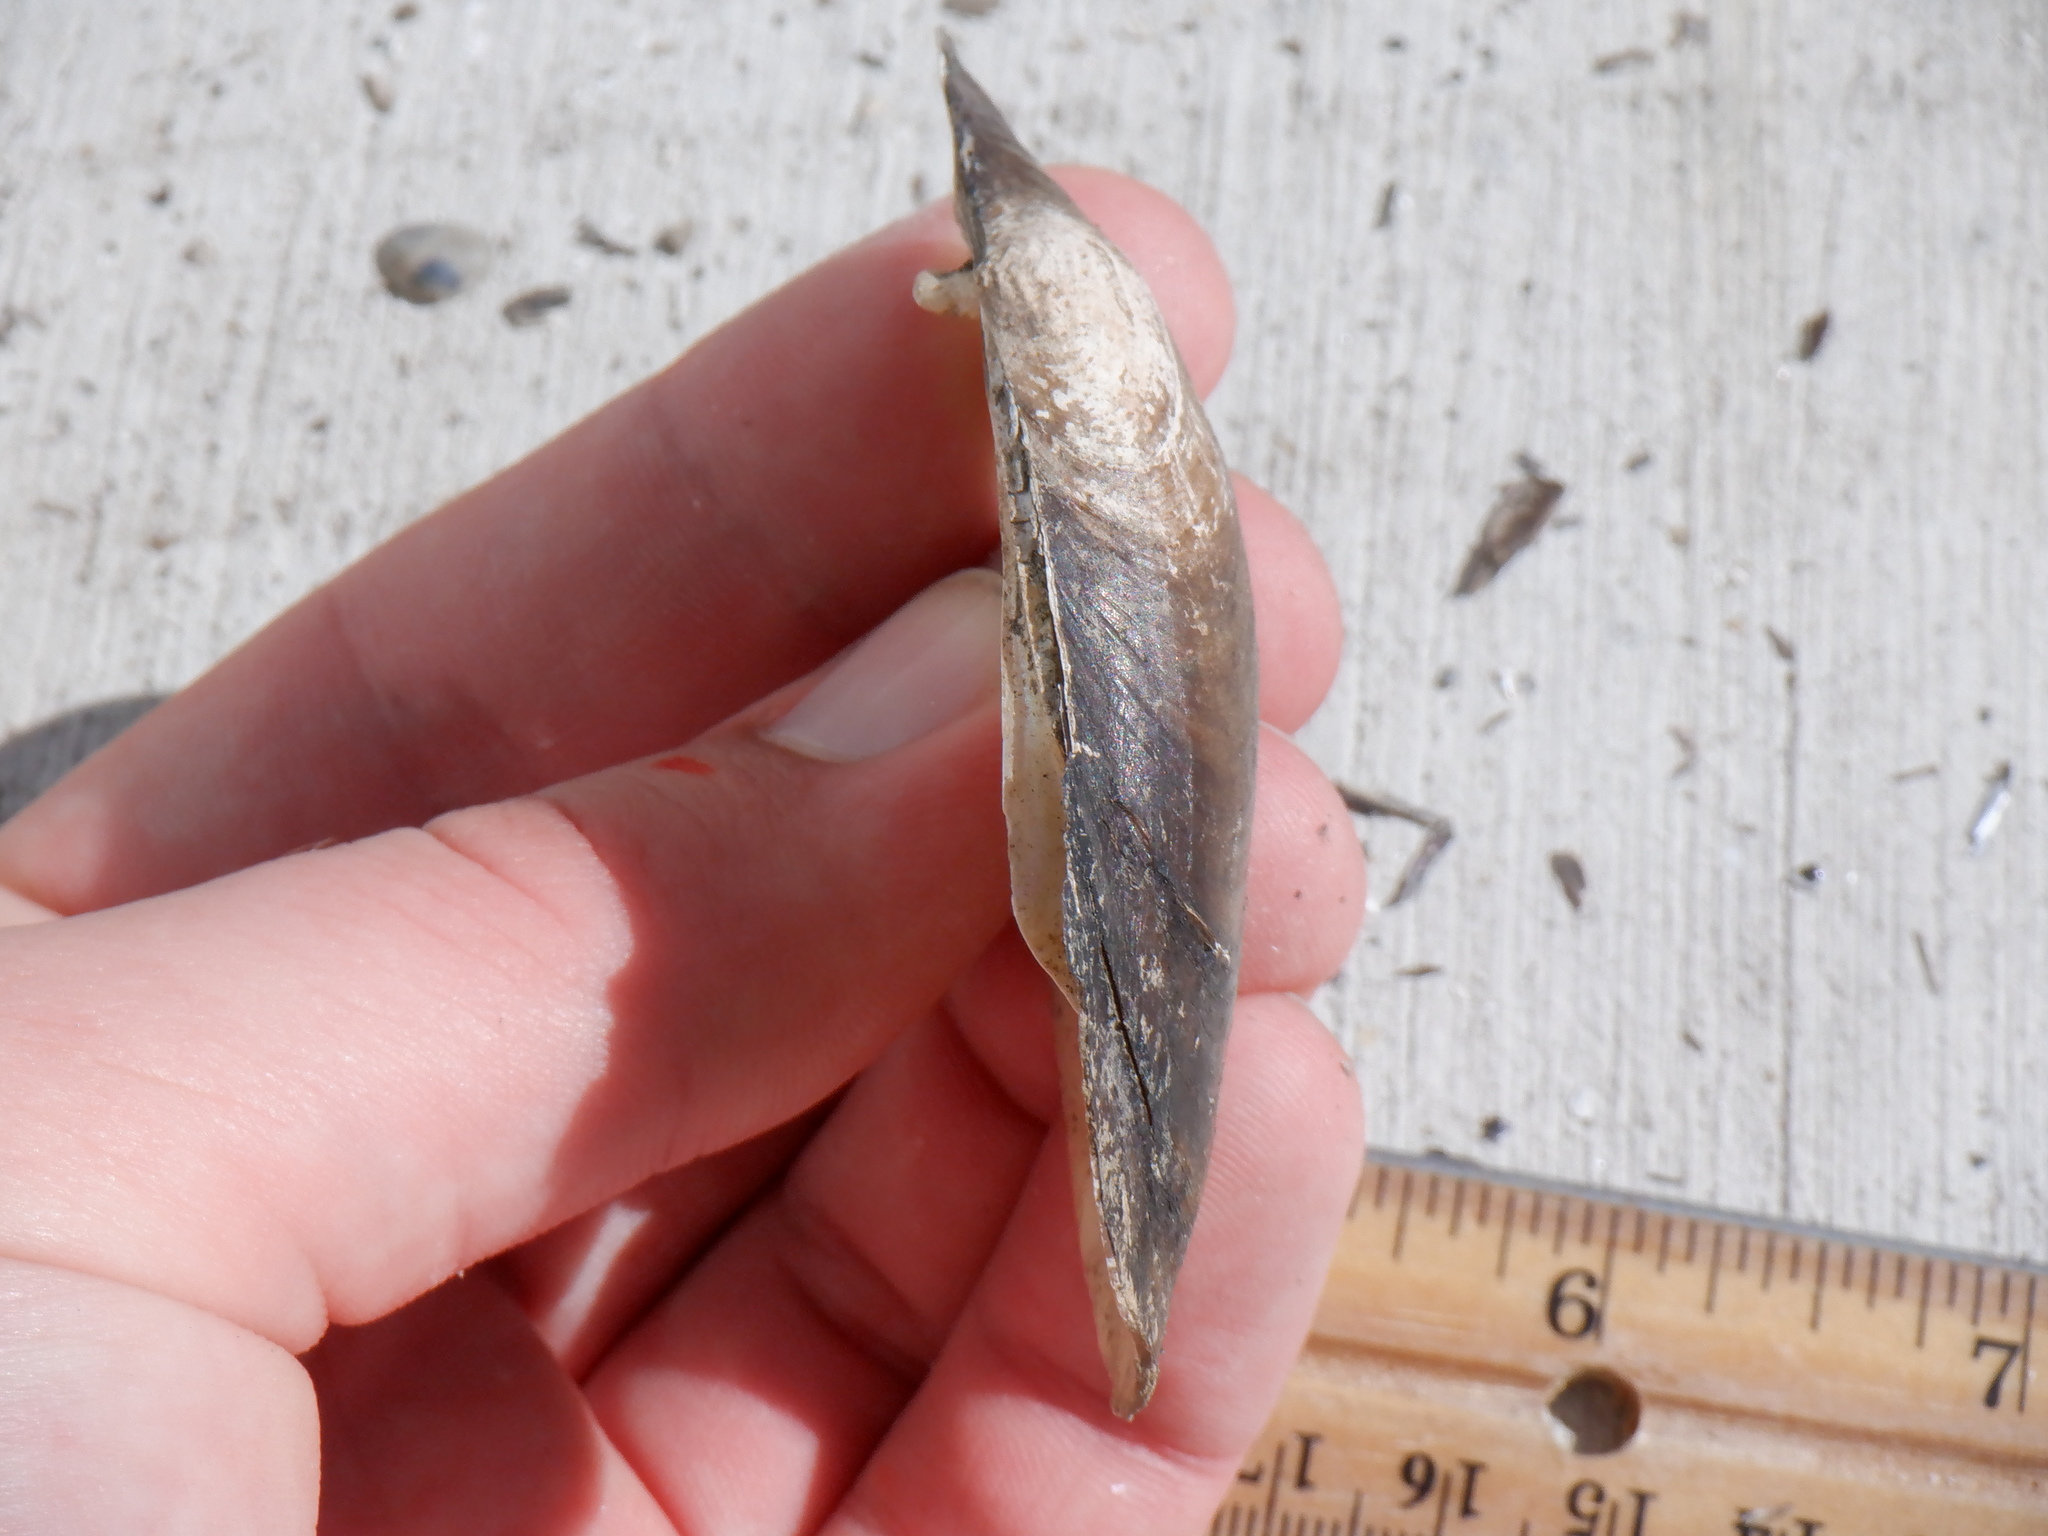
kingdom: Animalia
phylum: Mollusca
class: Bivalvia
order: Unionida
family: Unionidae
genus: Lampsilis
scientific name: Lampsilis siliquoidea
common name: Fatmucket
